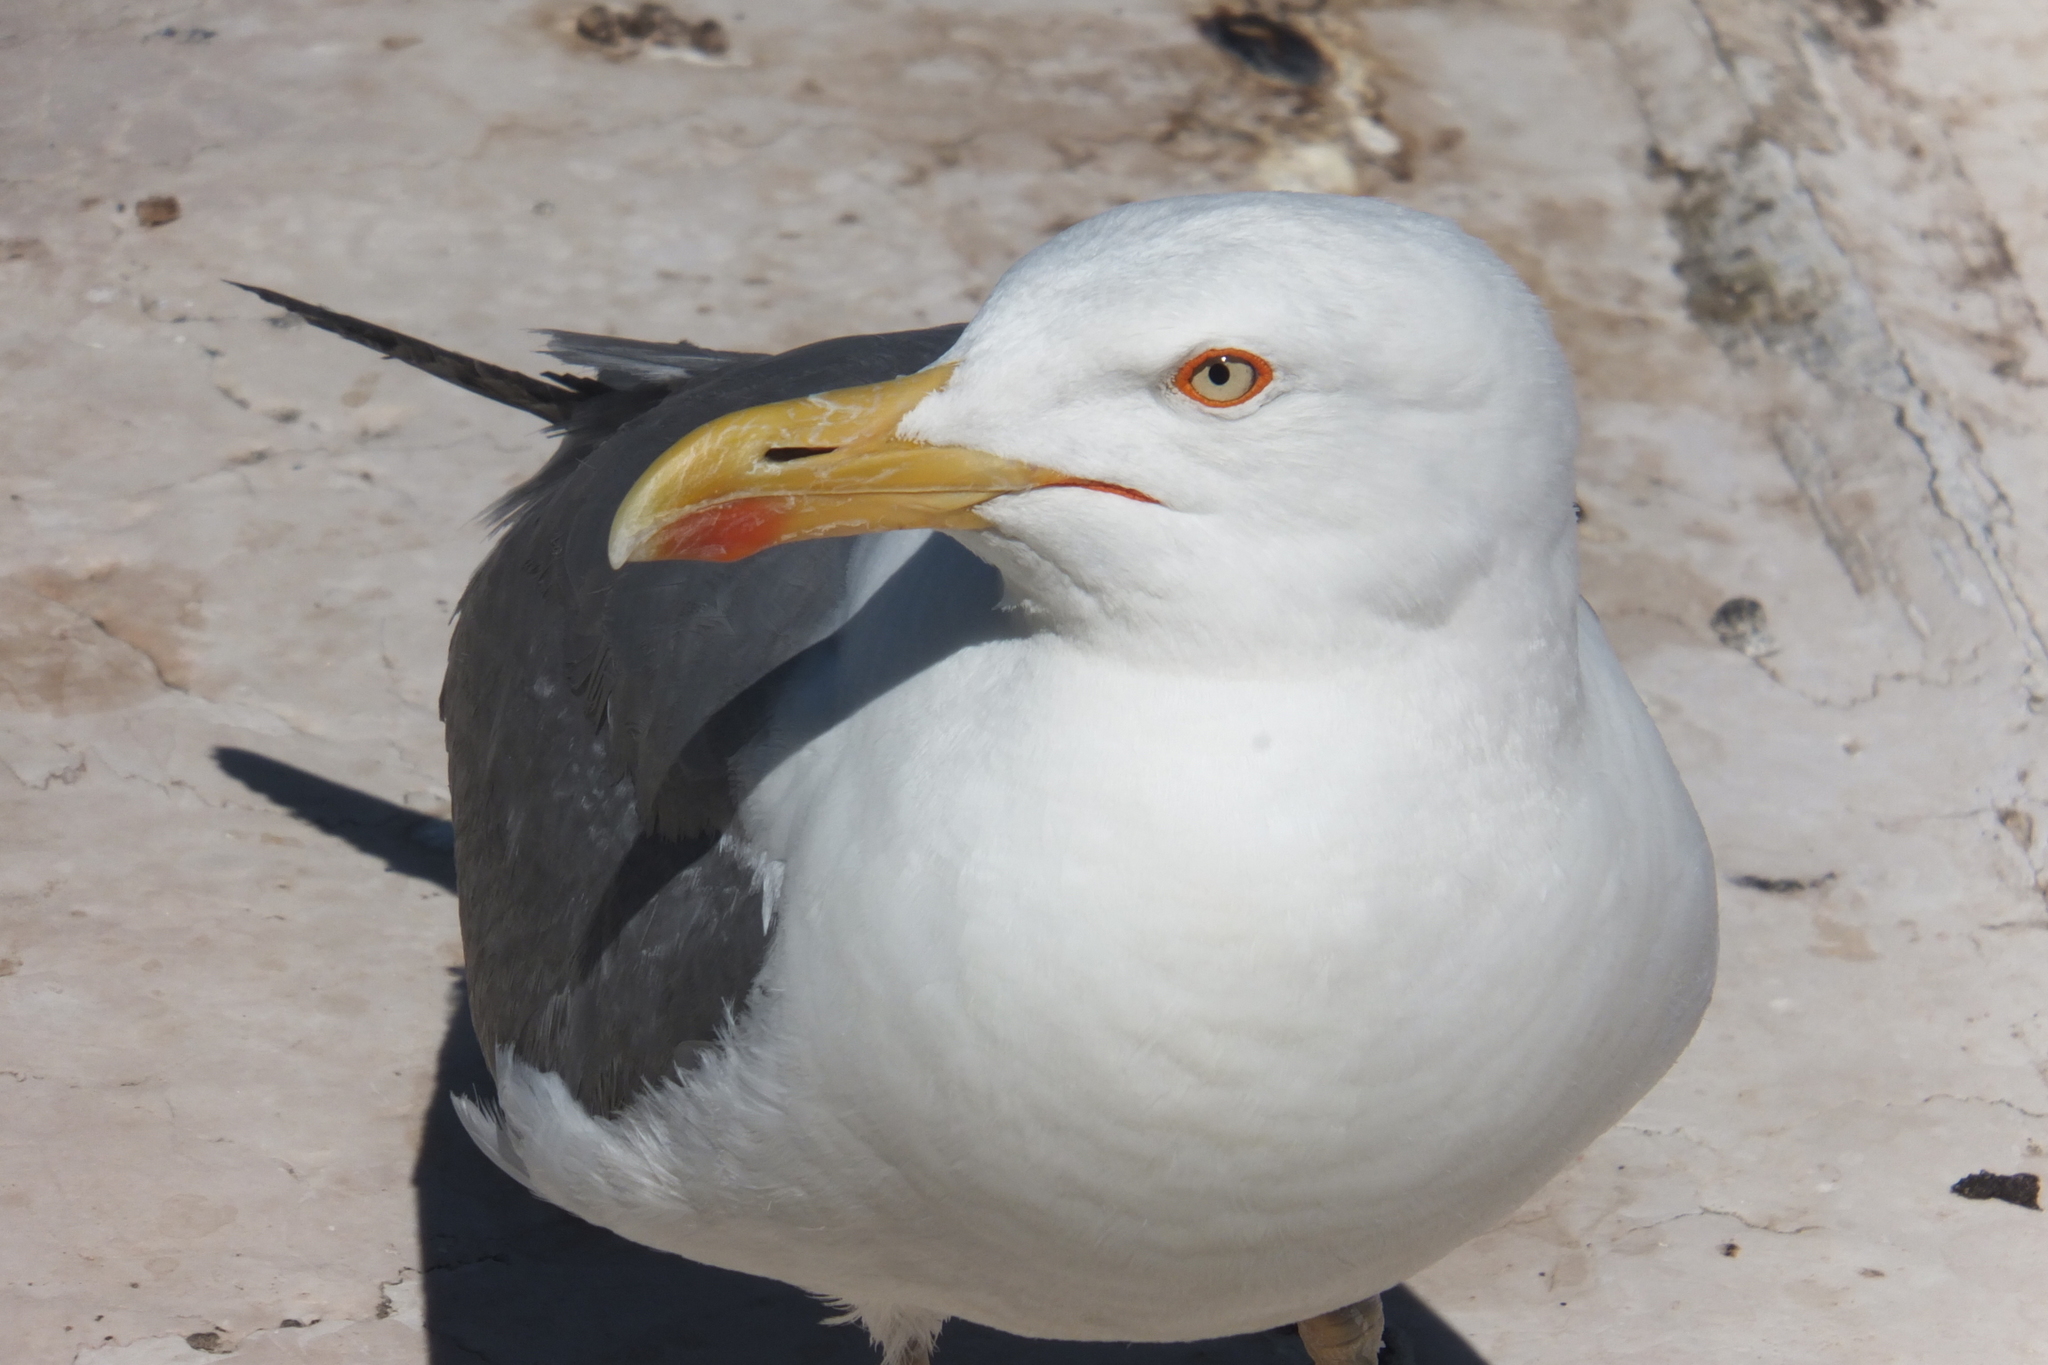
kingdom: Animalia
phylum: Chordata
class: Aves
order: Charadriiformes
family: Laridae
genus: Larus
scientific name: Larus michahellis
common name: Yellow-legged gull
